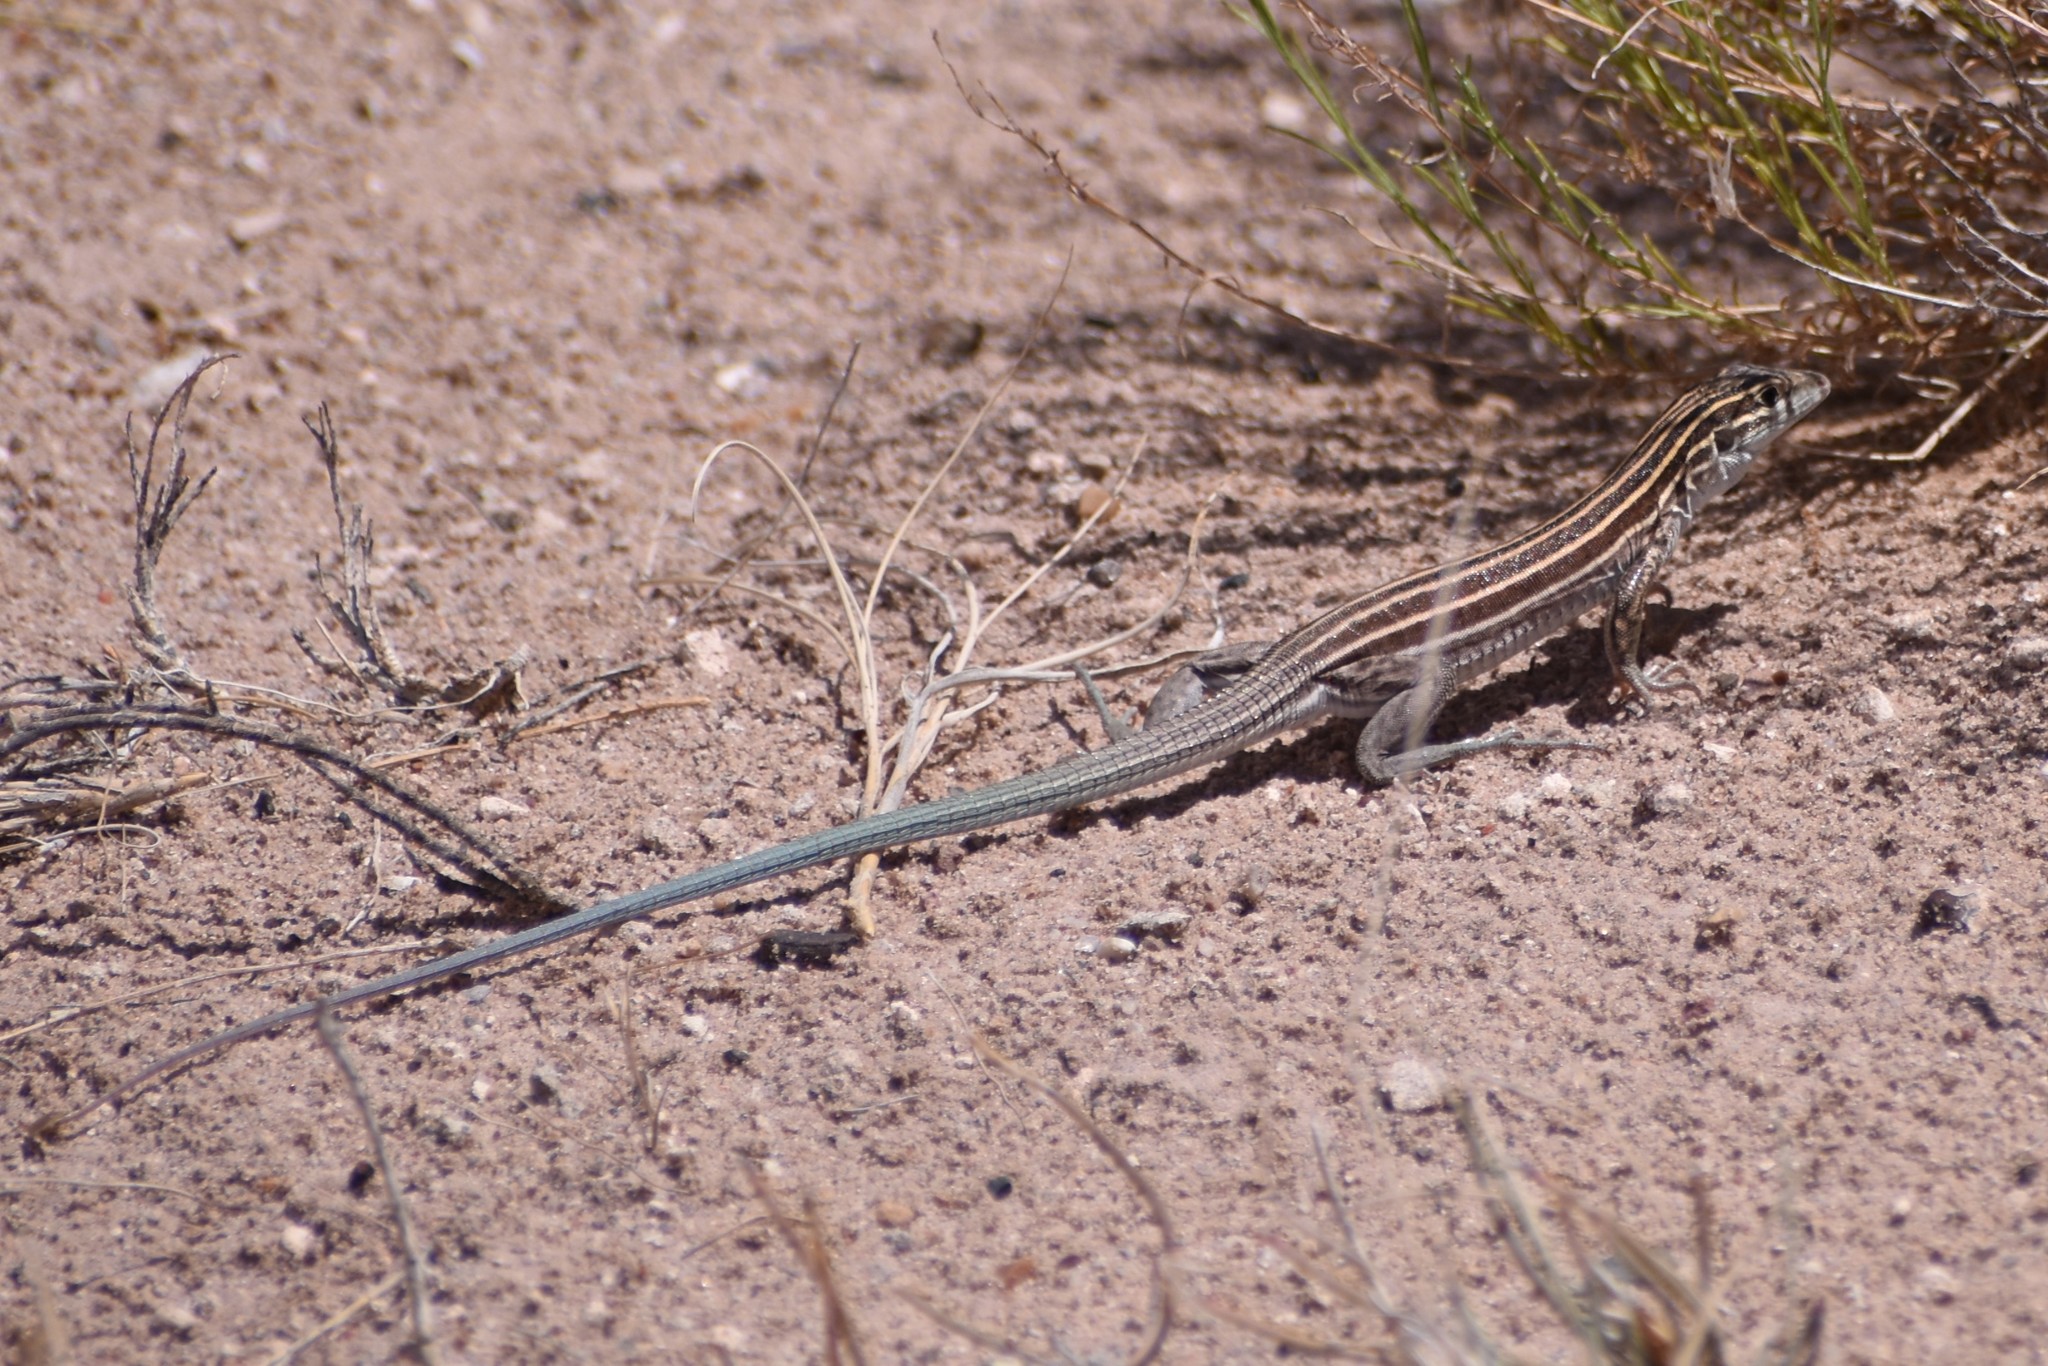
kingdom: Animalia
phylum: Chordata
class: Squamata
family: Teiidae
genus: Aspidoscelis
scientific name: Aspidoscelis velox
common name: Plateau striped whiptail
